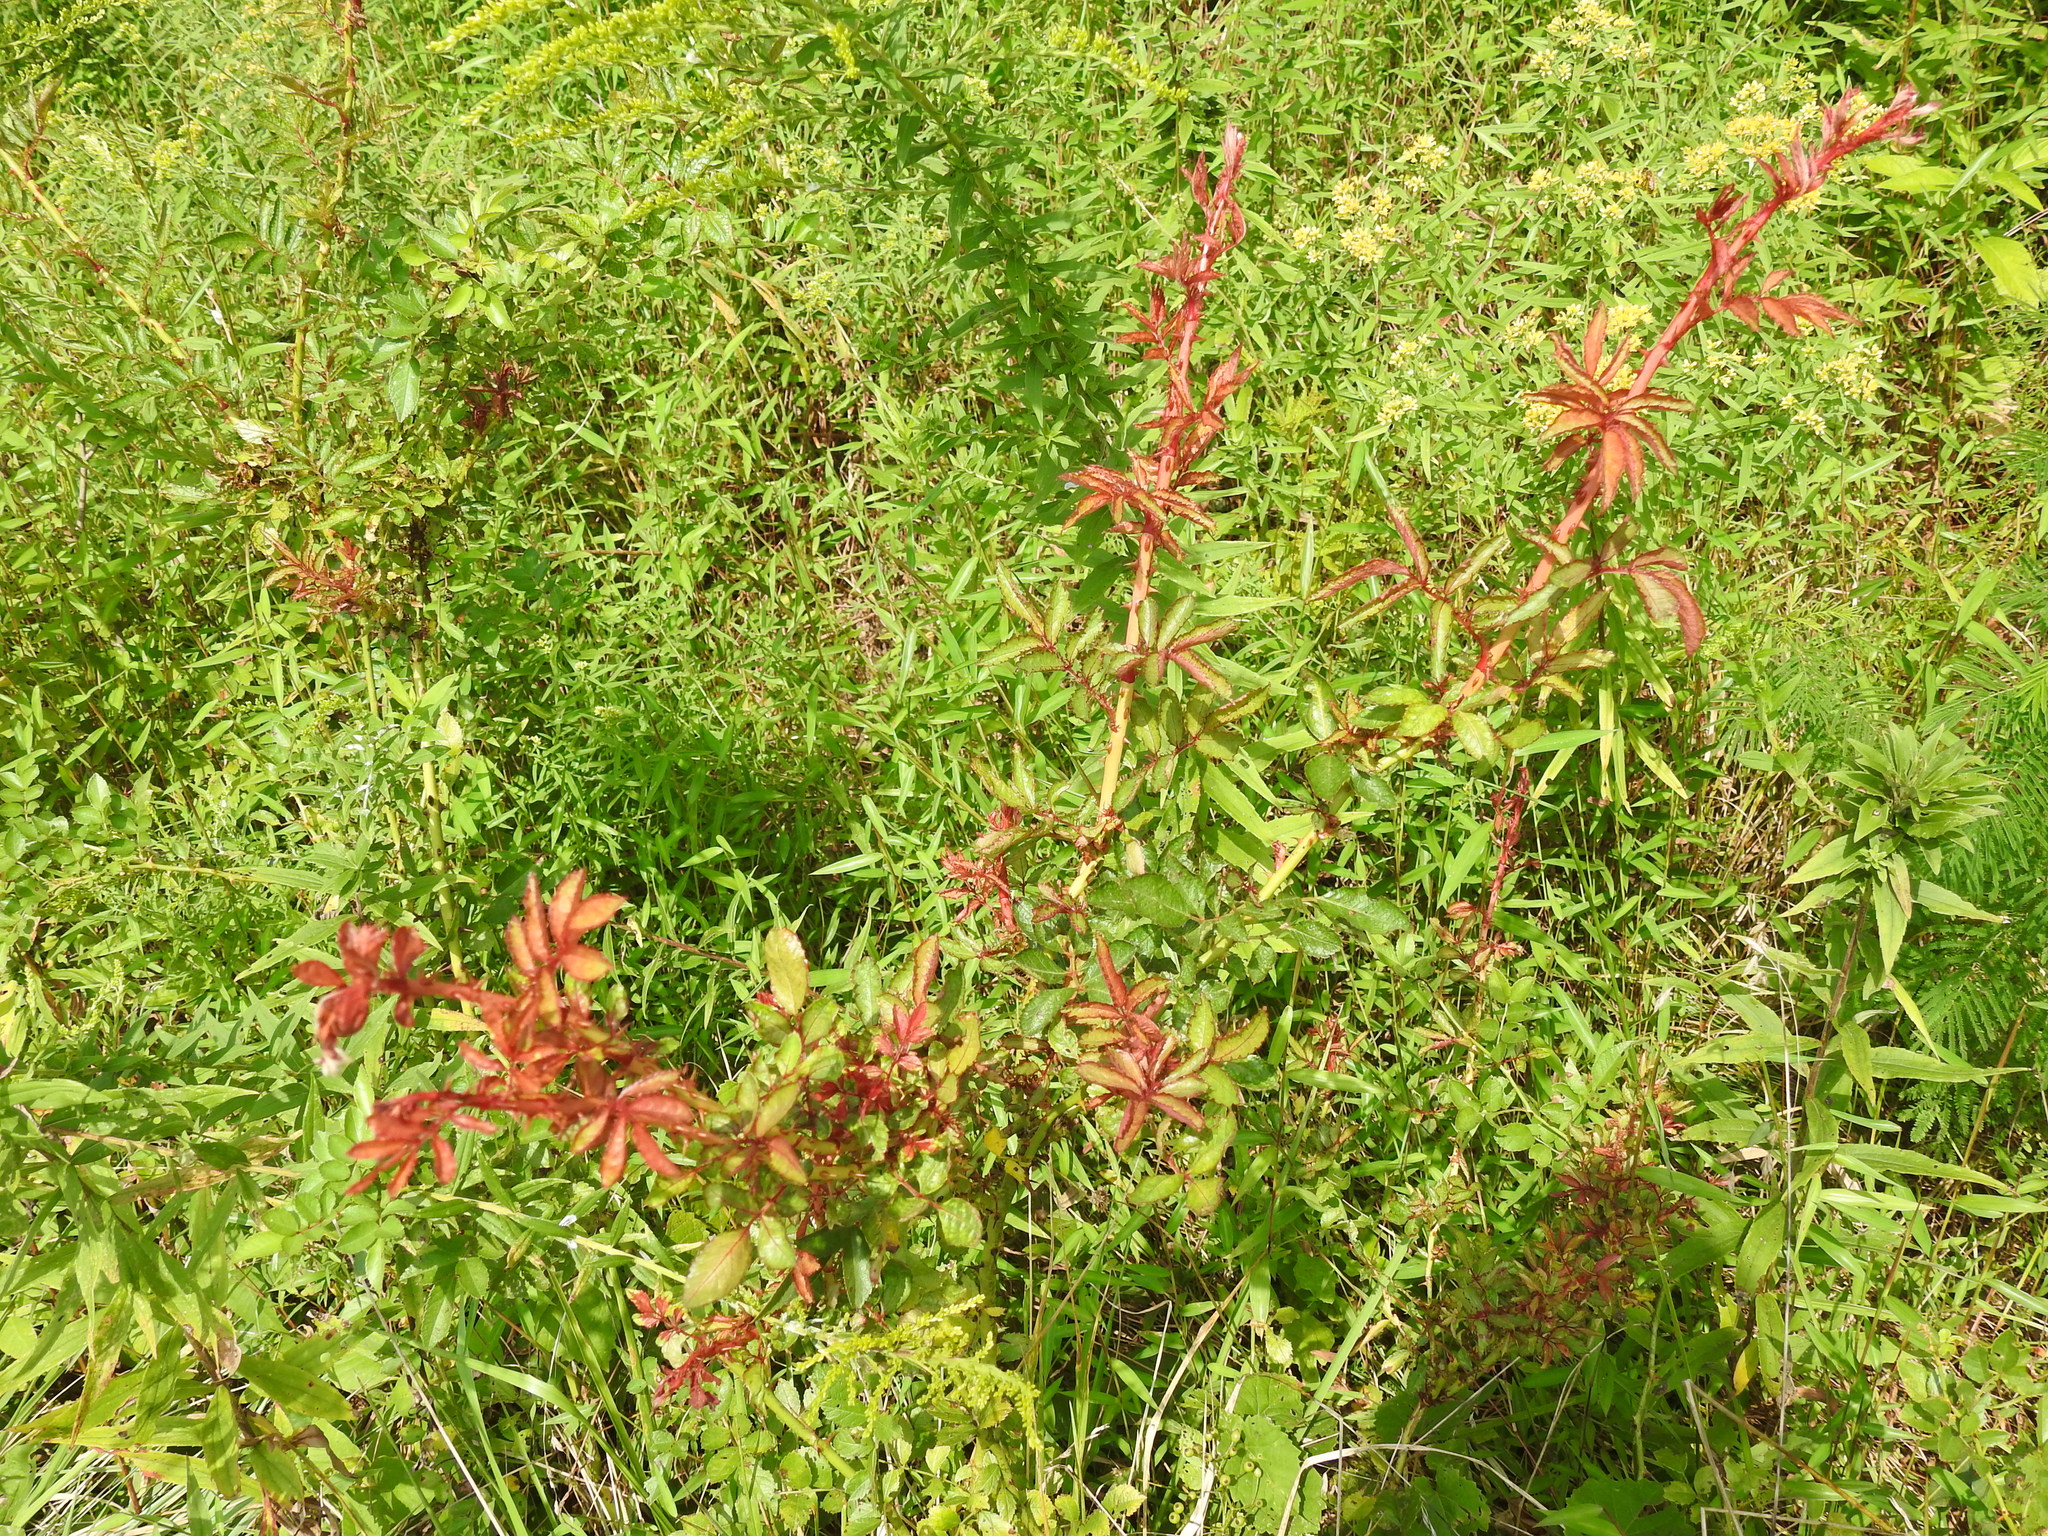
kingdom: Viruses
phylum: Negarnaviricota
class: Ellioviricetes
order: Bunyavirales
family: Fimoviridae
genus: Emaravirus
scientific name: Emaravirus rosae
